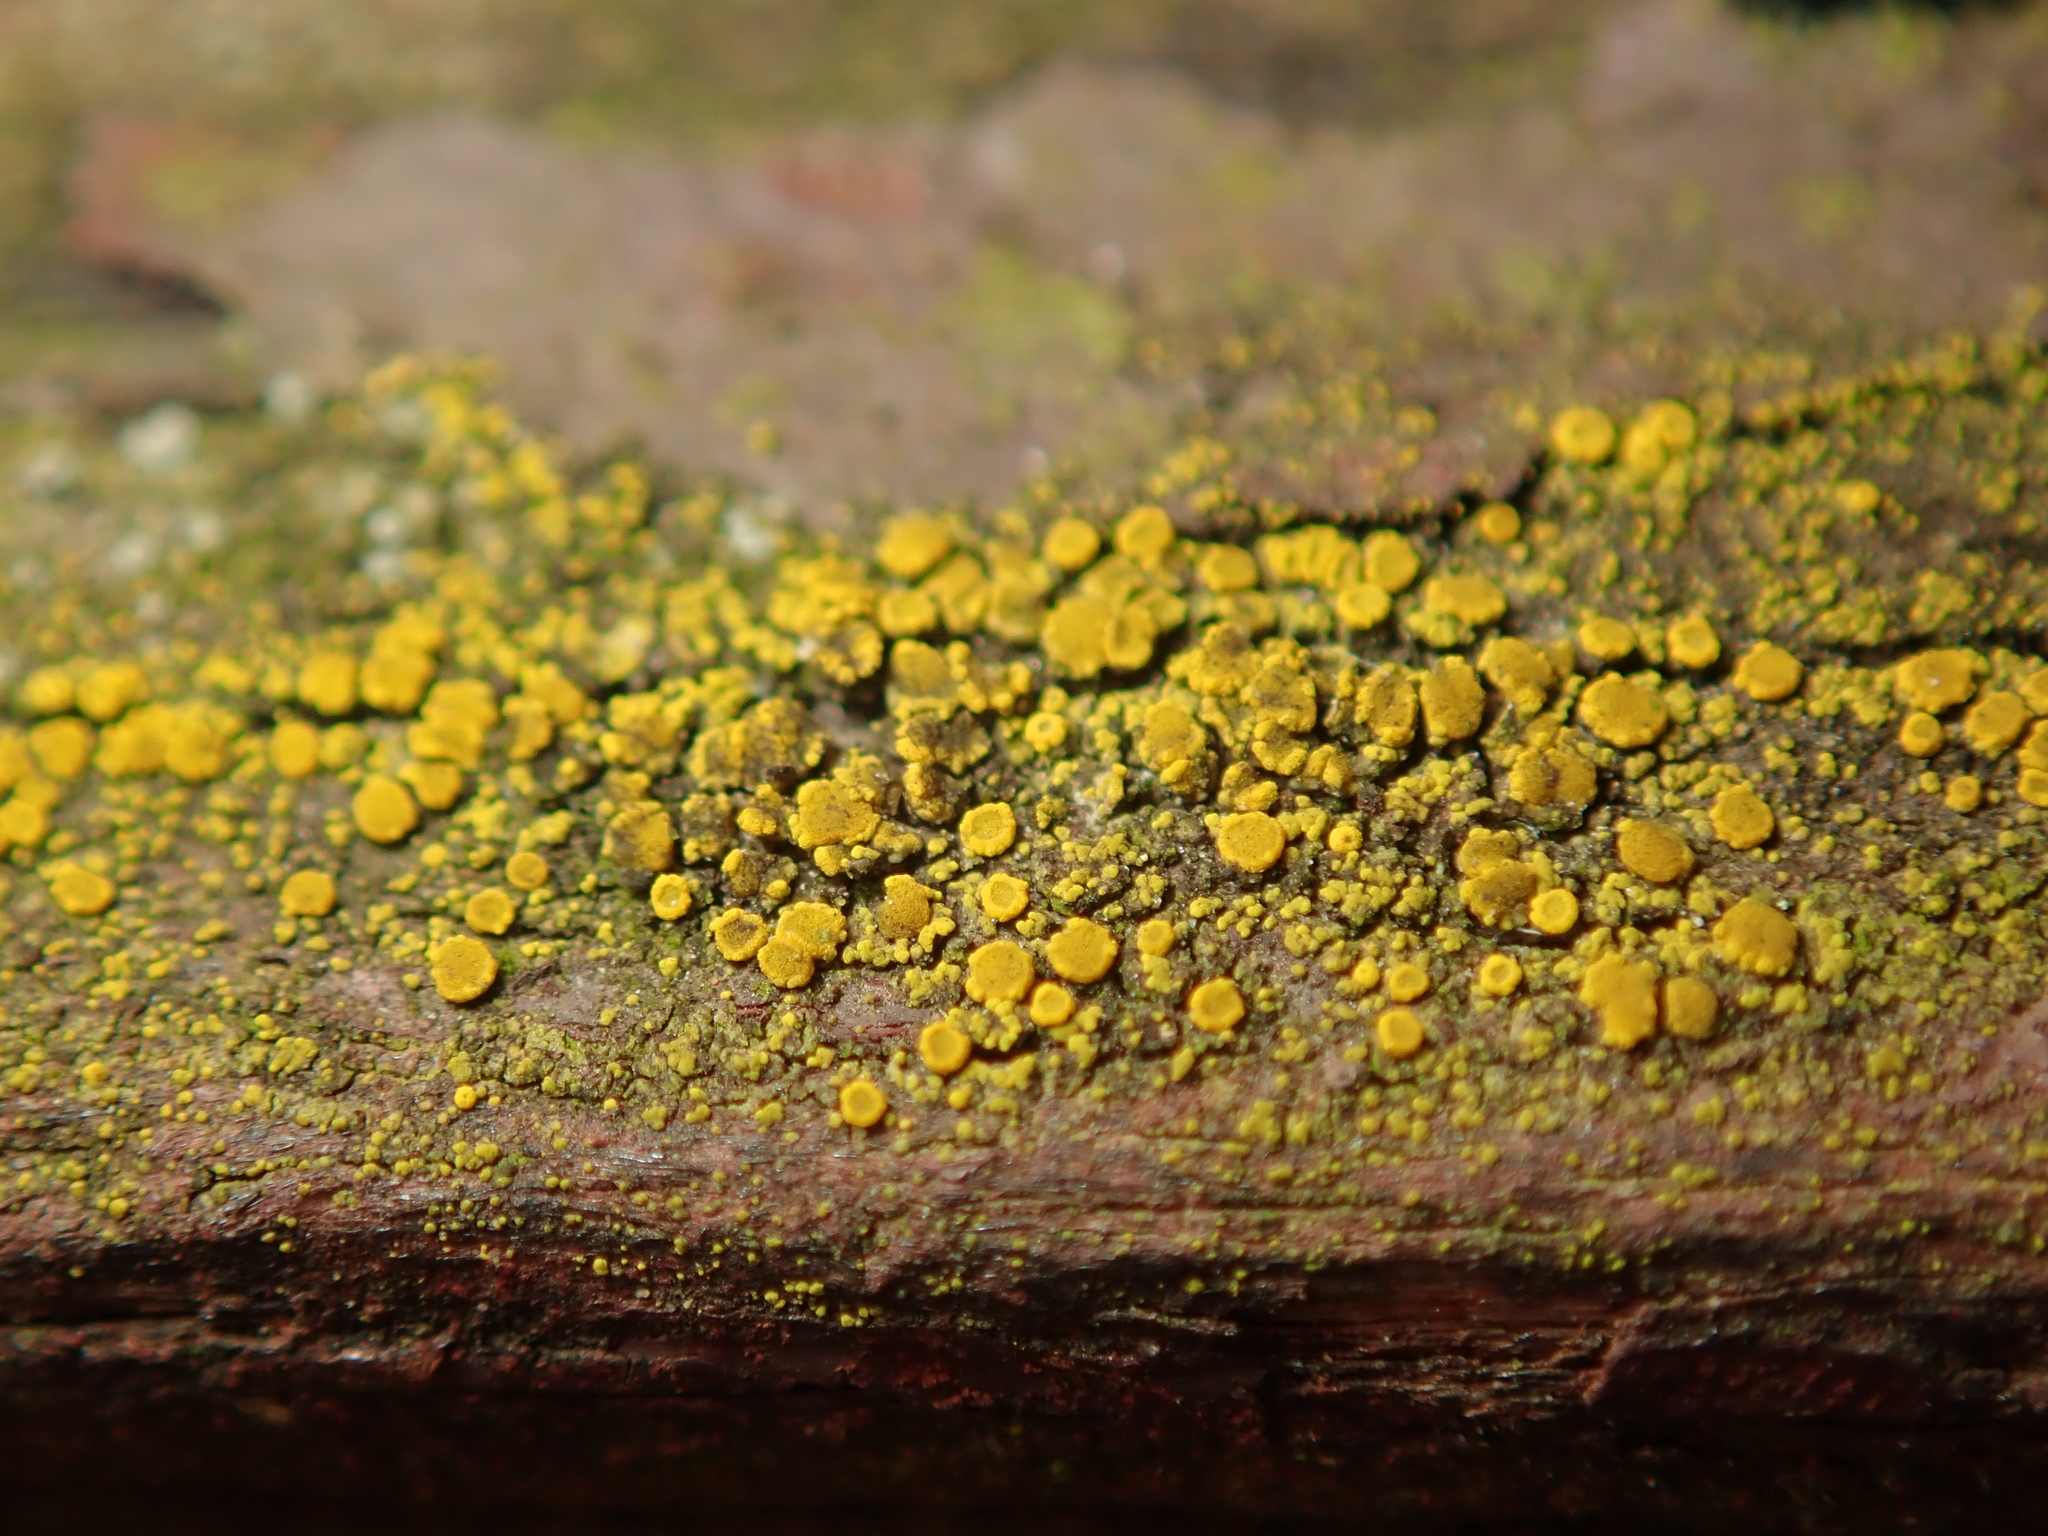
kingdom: Fungi
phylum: Ascomycota
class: Candelariomycetes
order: Candelariales
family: Candelariaceae
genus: Candelariella
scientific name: Candelariella vitellina
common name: Common goldspeck
